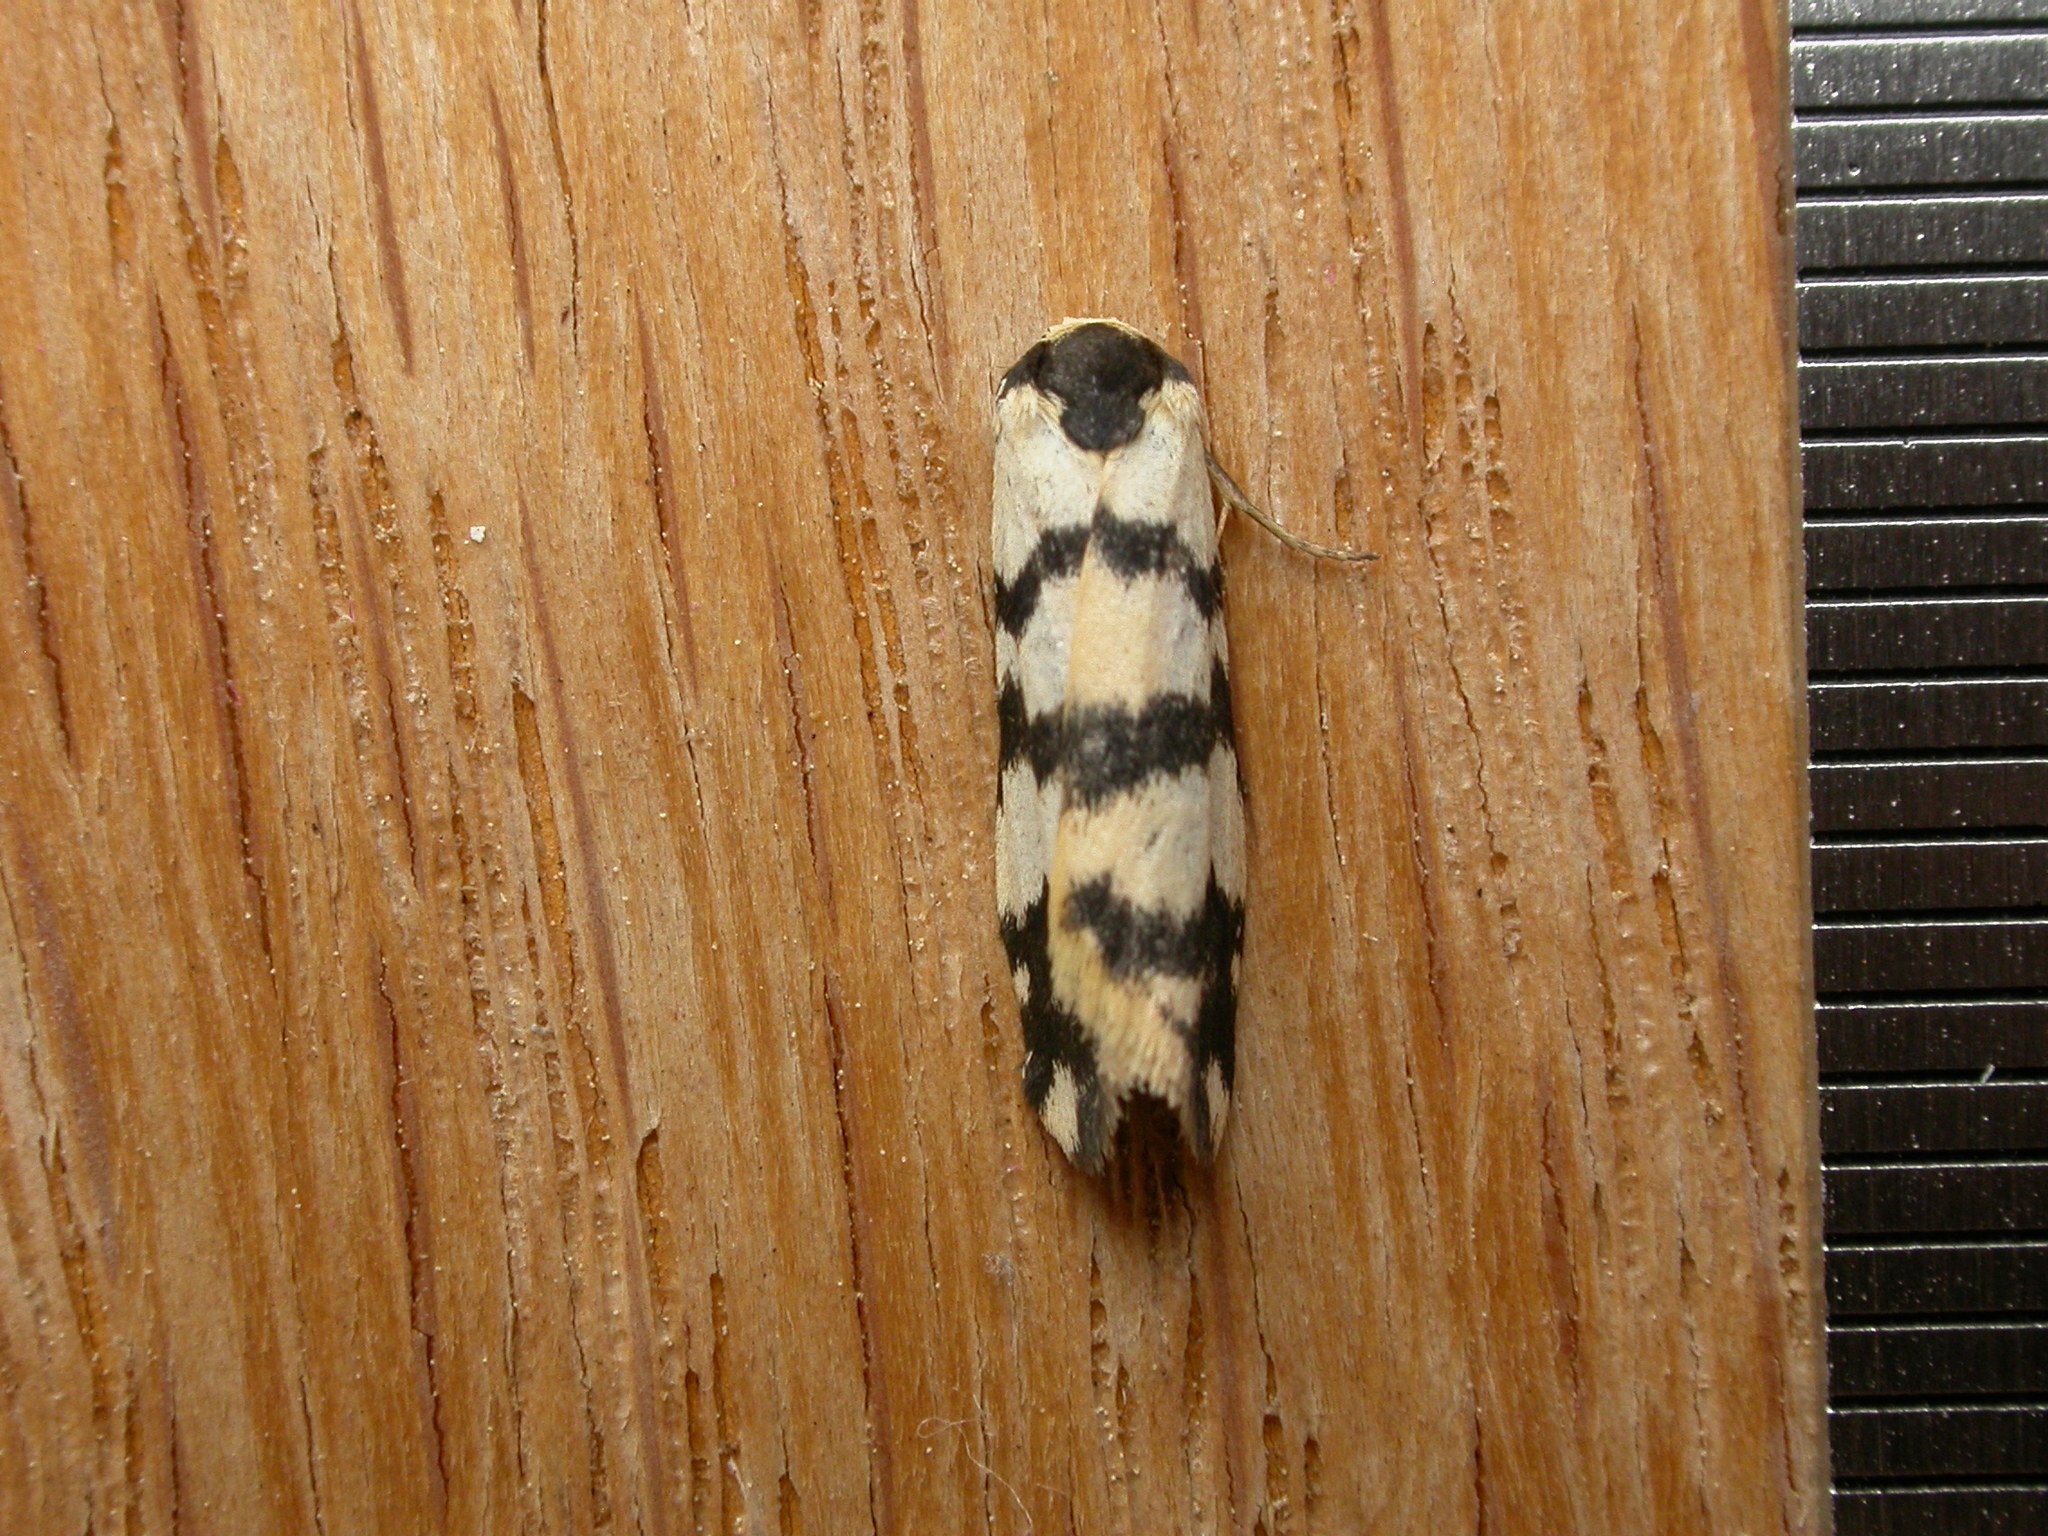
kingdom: Animalia
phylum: Arthropoda
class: Insecta
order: Lepidoptera
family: Erebidae
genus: Thallarcha
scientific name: Thallarcha trissomochla
